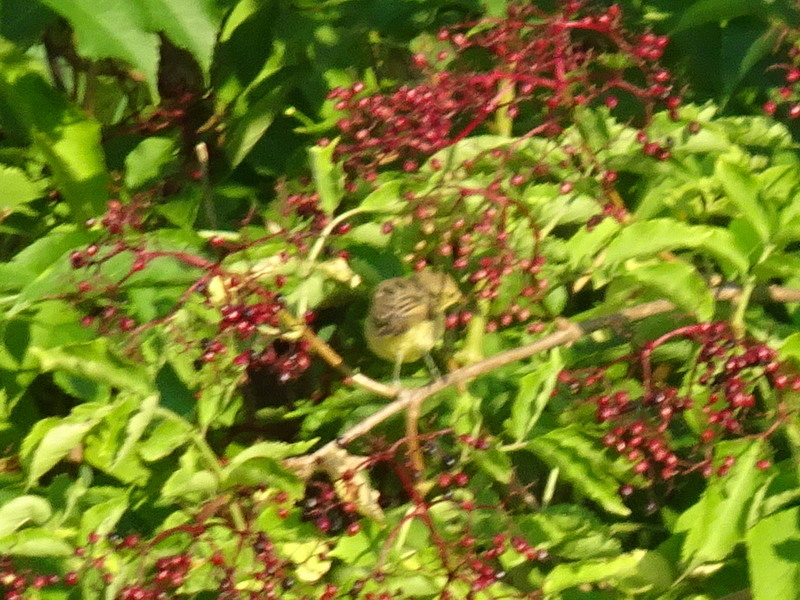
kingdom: Animalia
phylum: Chordata
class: Aves
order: Passeriformes
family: Acrocephalidae
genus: Hippolais
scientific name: Hippolais polyglotta
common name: Melodious warbler
